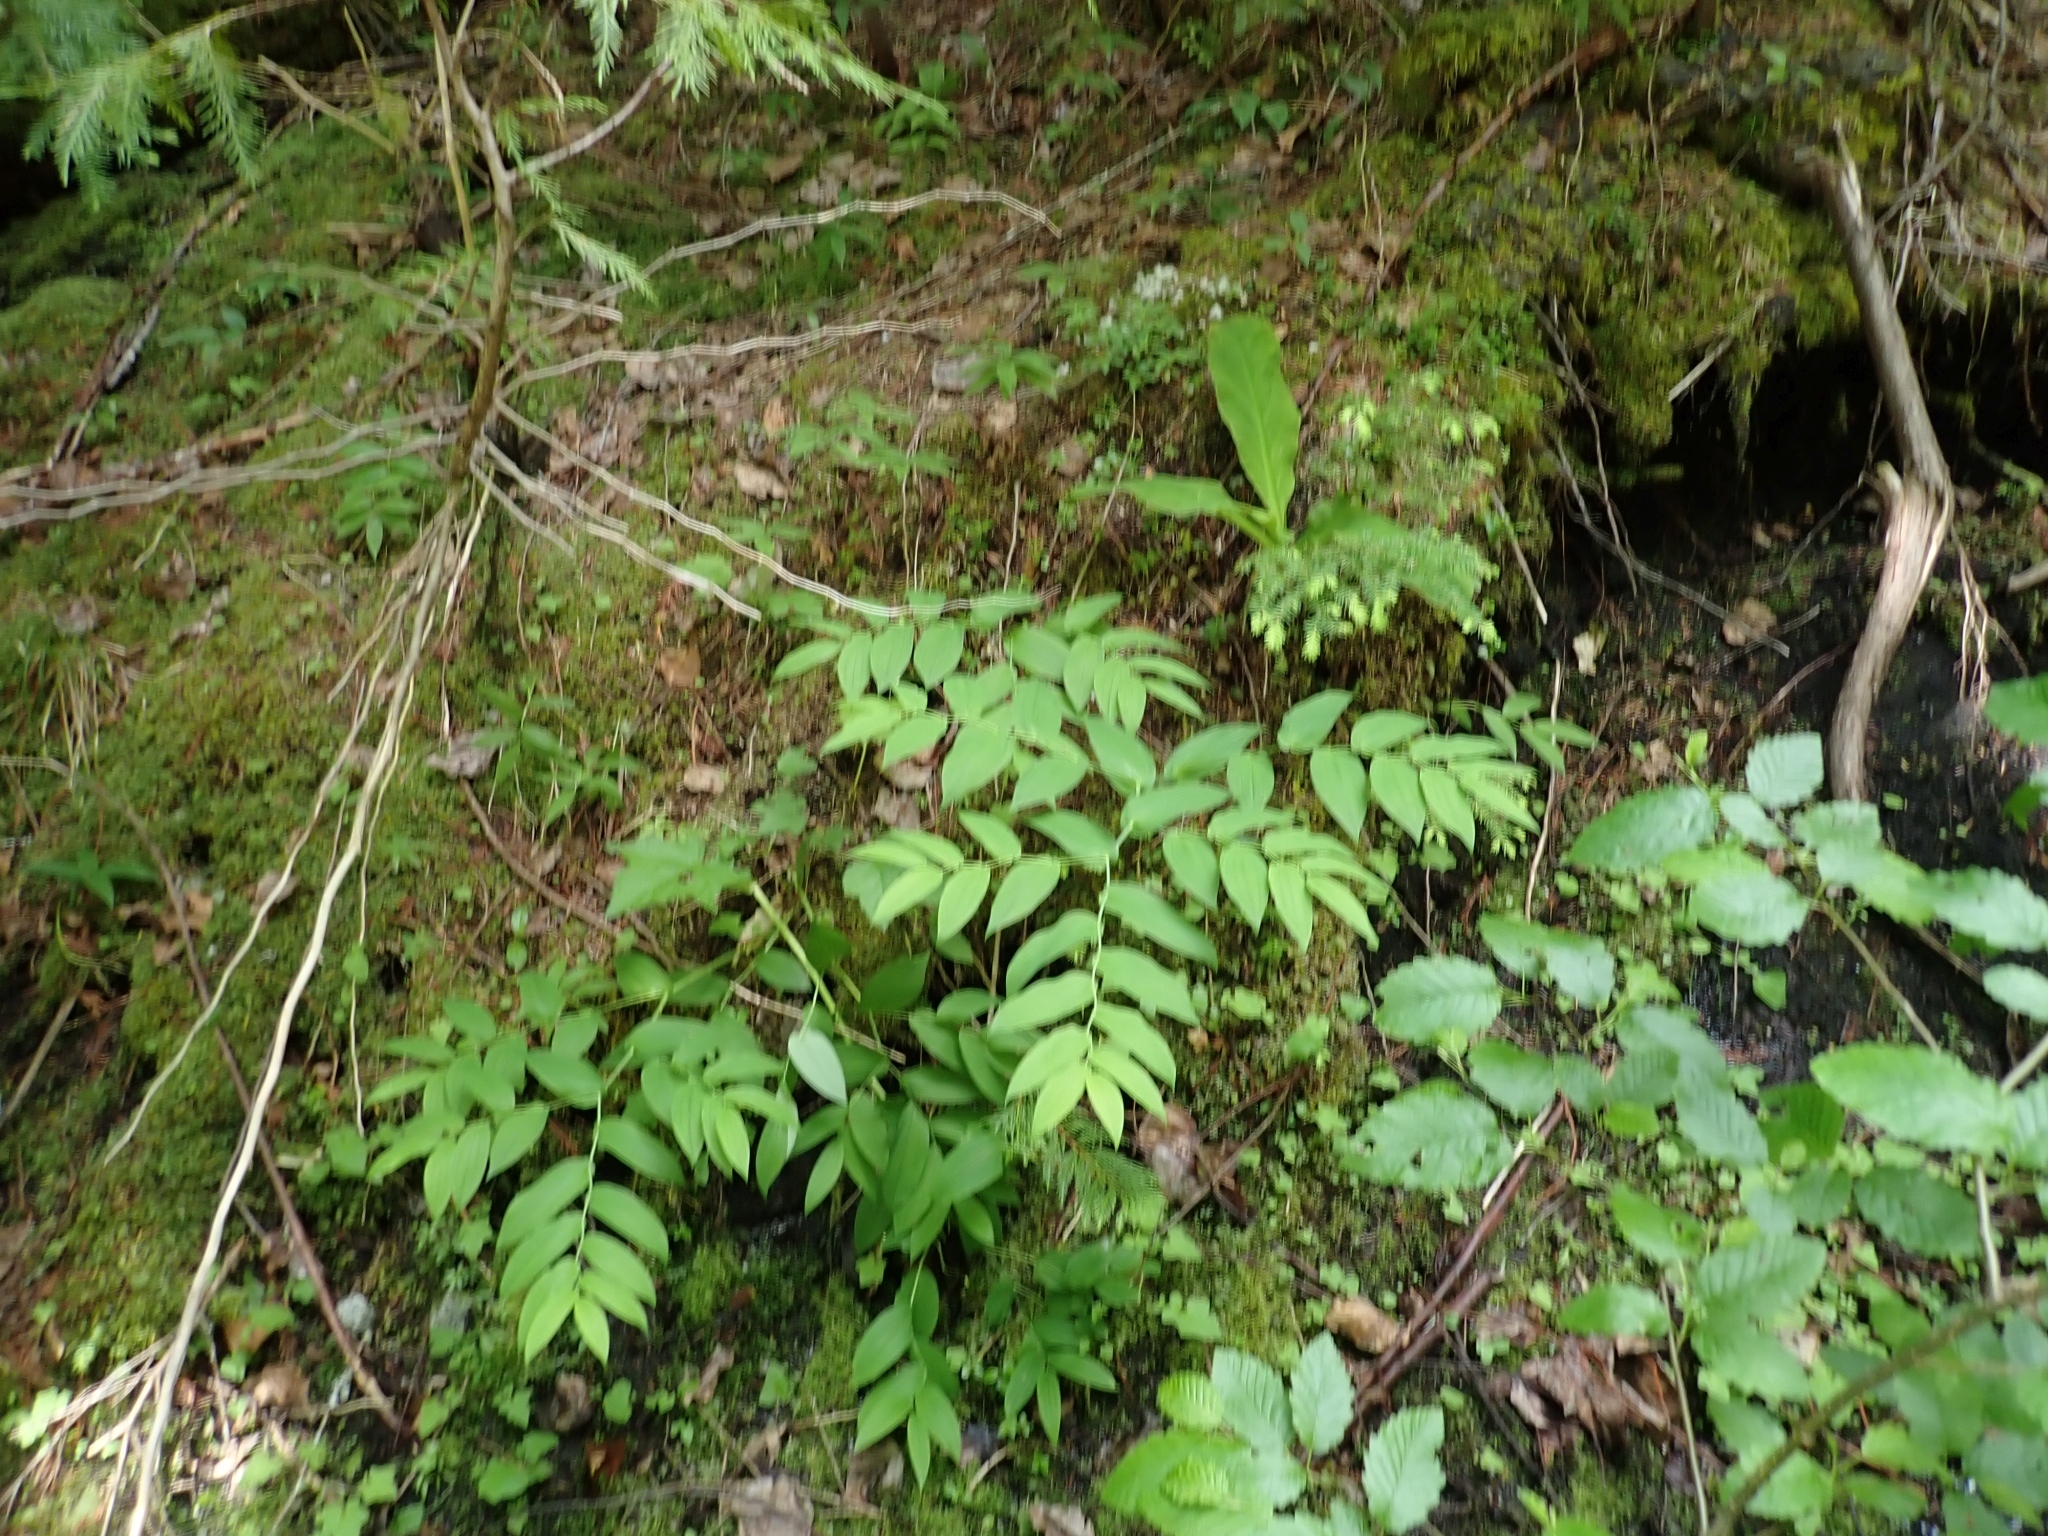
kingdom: Plantae
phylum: Tracheophyta
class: Liliopsida
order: Liliales
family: Liliaceae
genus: Streptopus
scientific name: Streptopus amplexifolius
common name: Clasp twisted stalk
